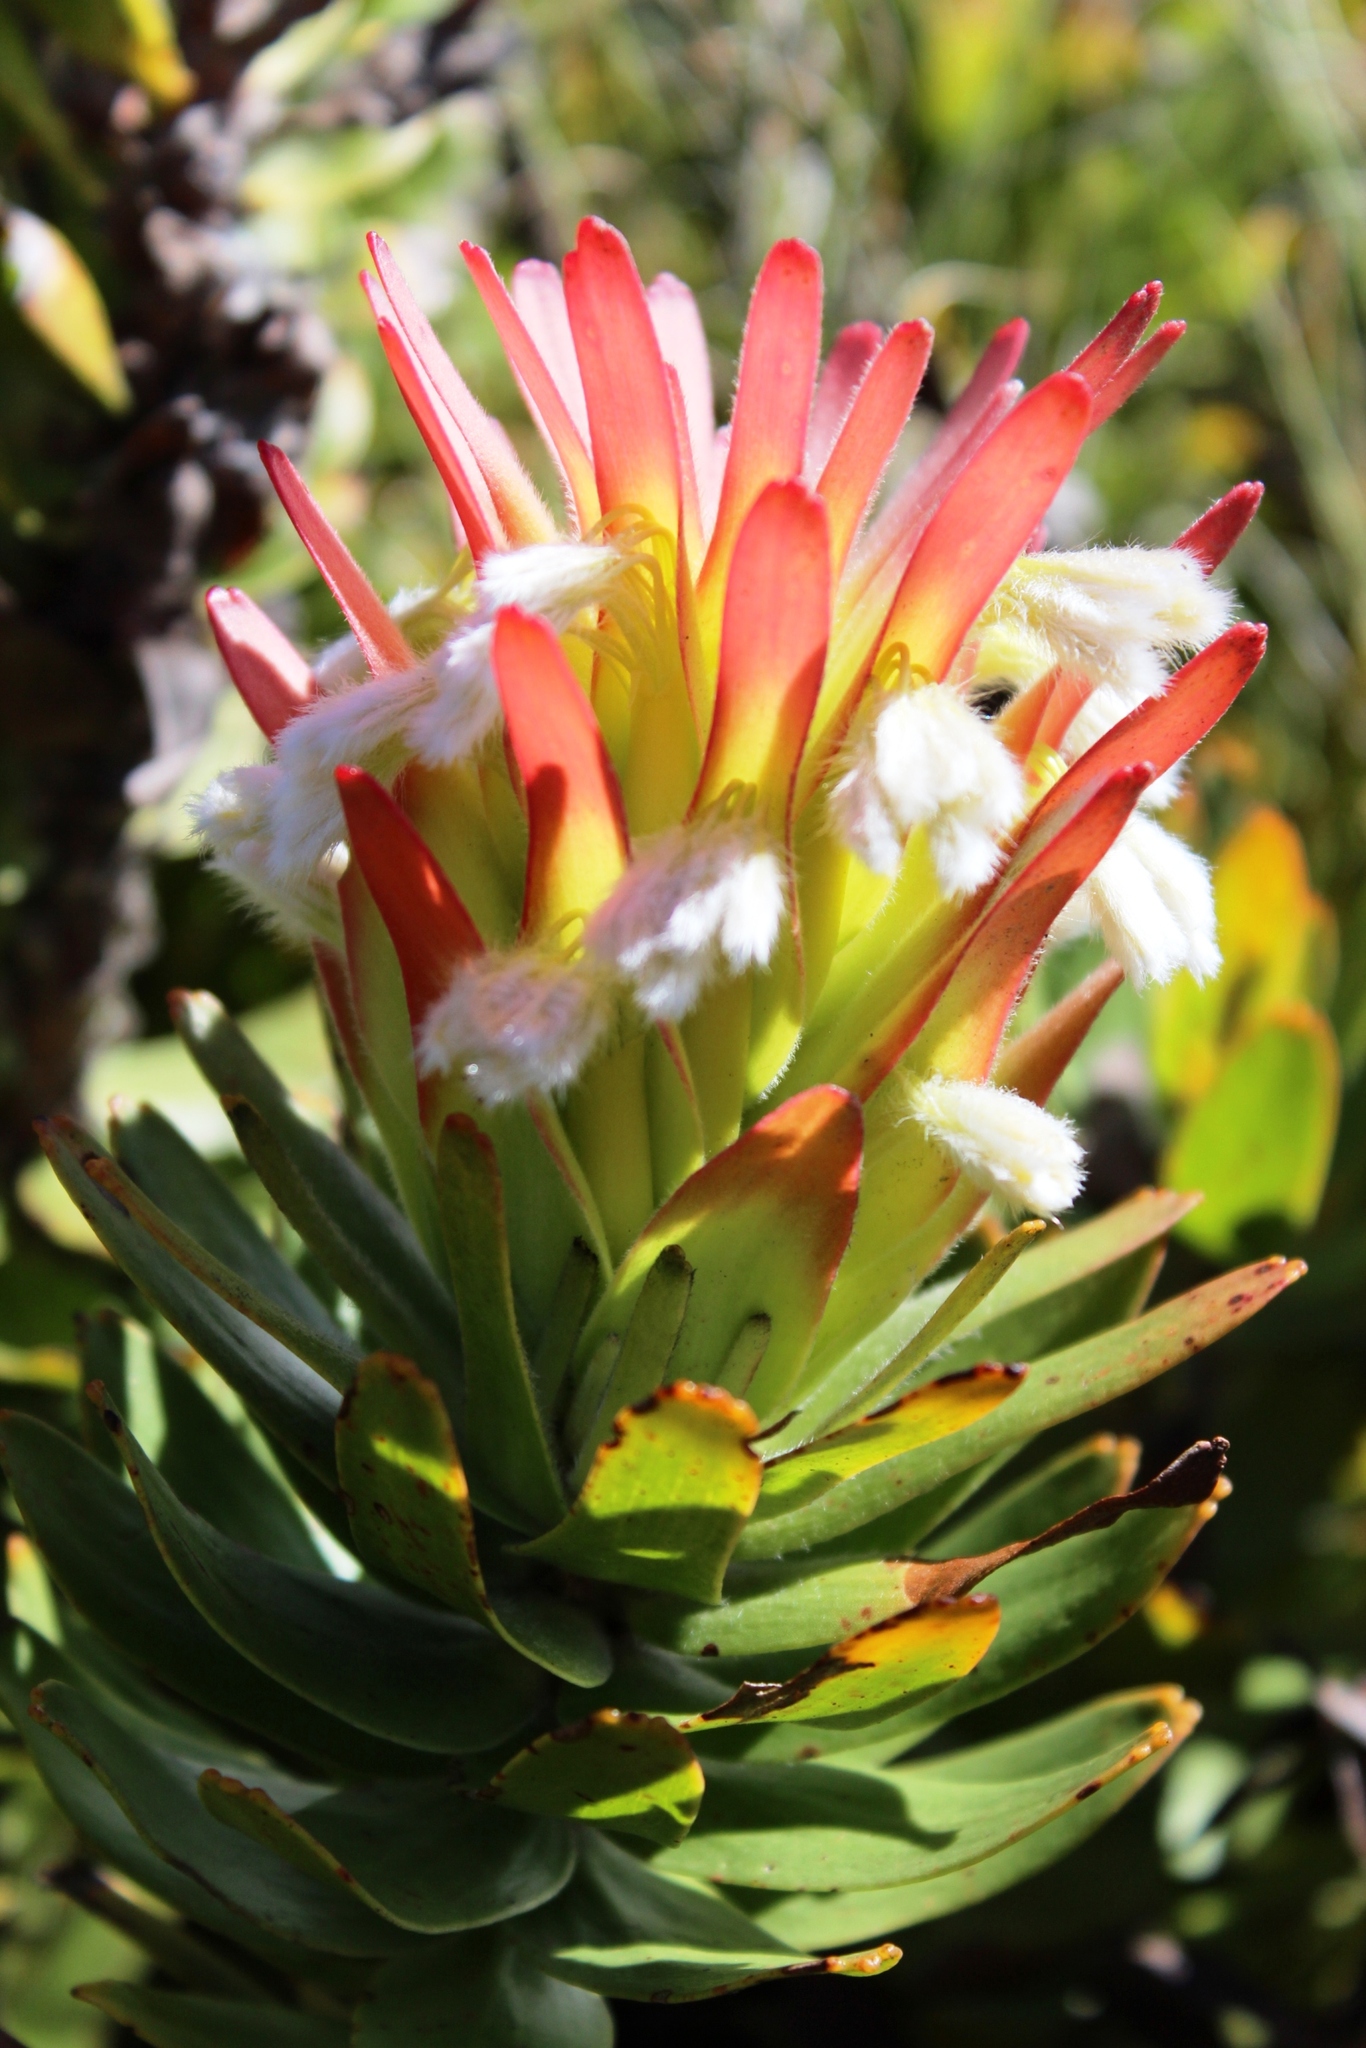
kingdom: Plantae
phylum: Tracheophyta
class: Magnoliopsida
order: Proteales
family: Proteaceae
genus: Mimetes
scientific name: Mimetes cucullatus
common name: Common pagoda
